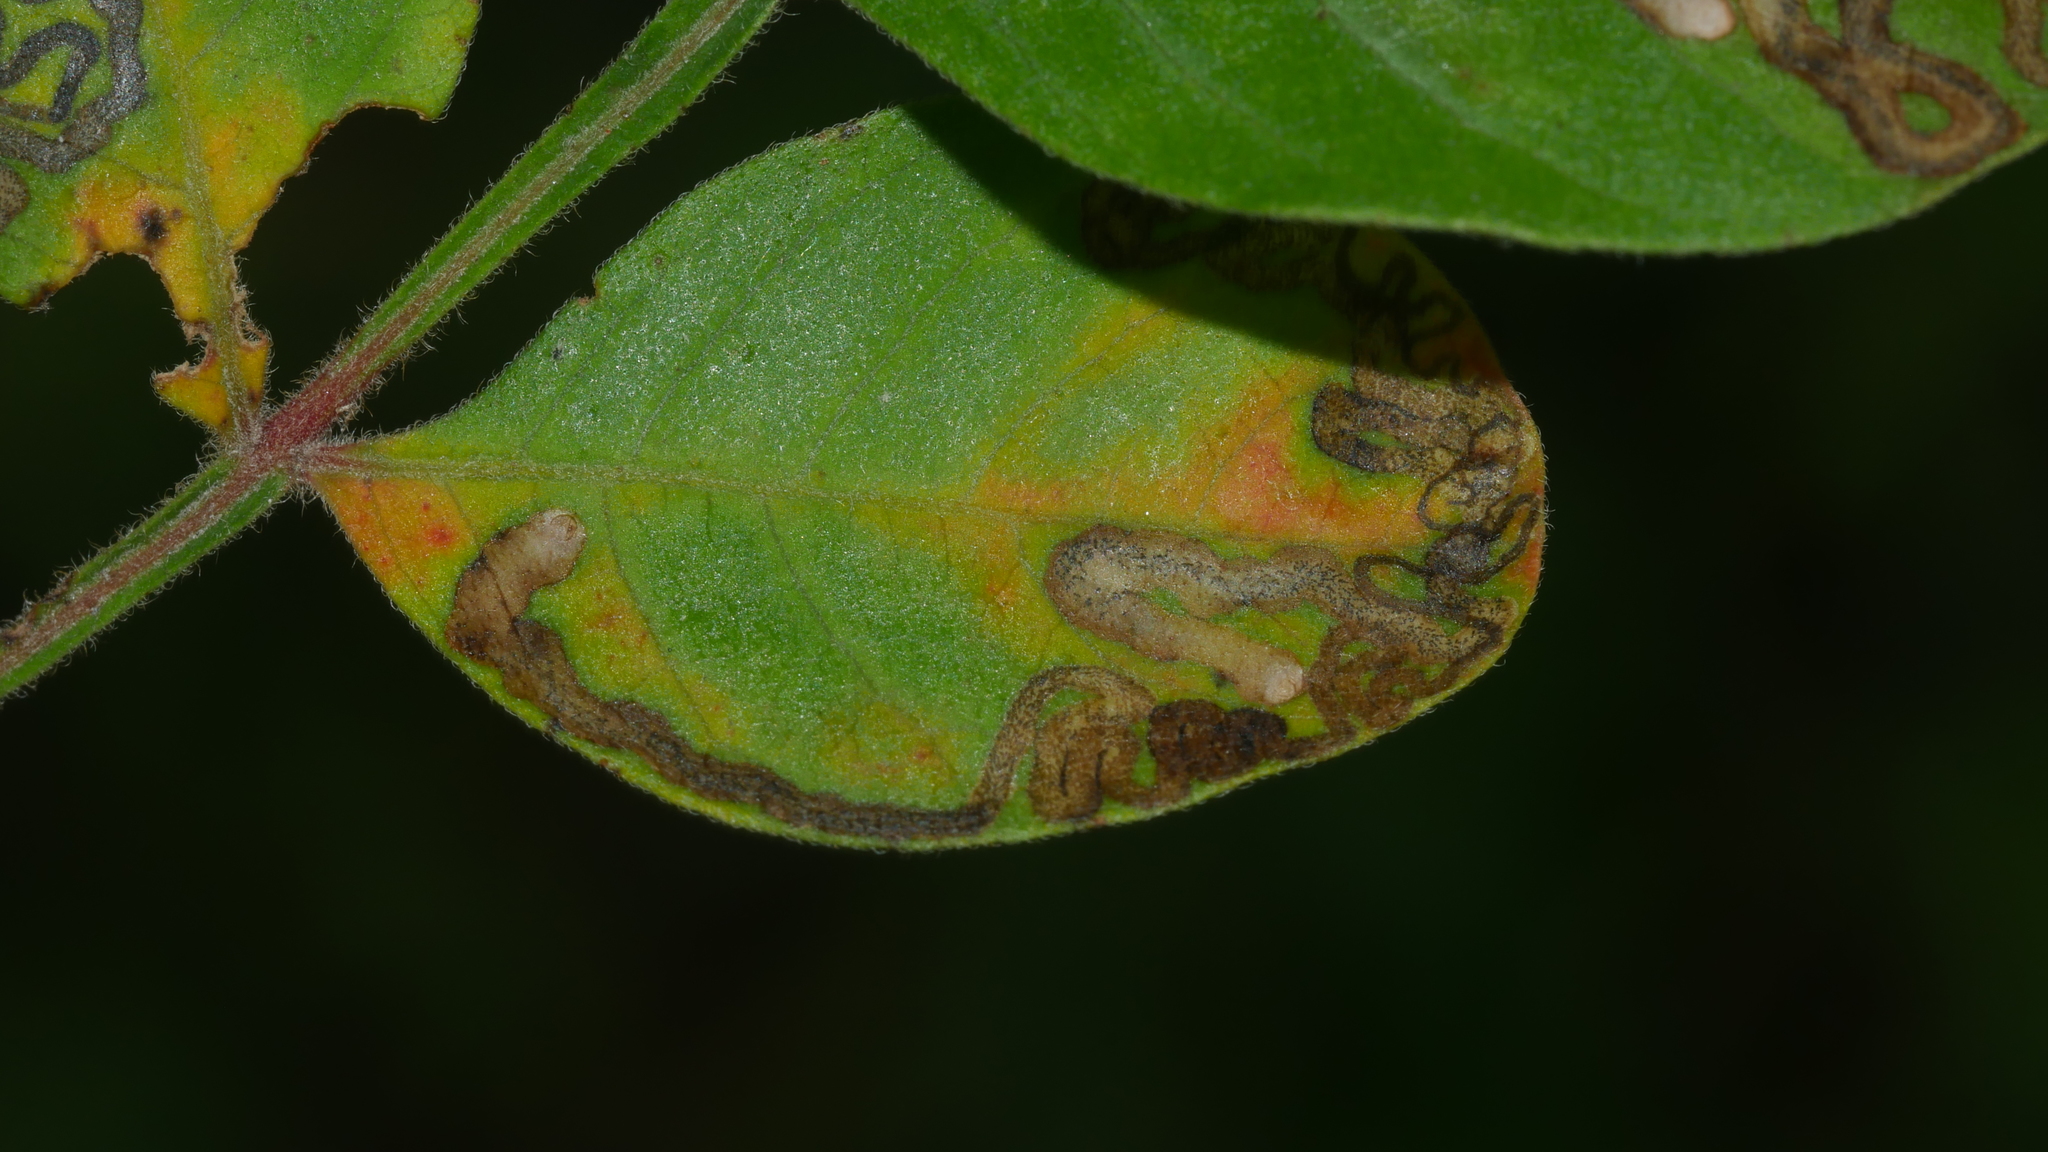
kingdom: Animalia
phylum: Arthropoda
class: Insecta
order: Lepidoptera
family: Nepticulidae
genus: Stigmella
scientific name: Stigmella intermedia
